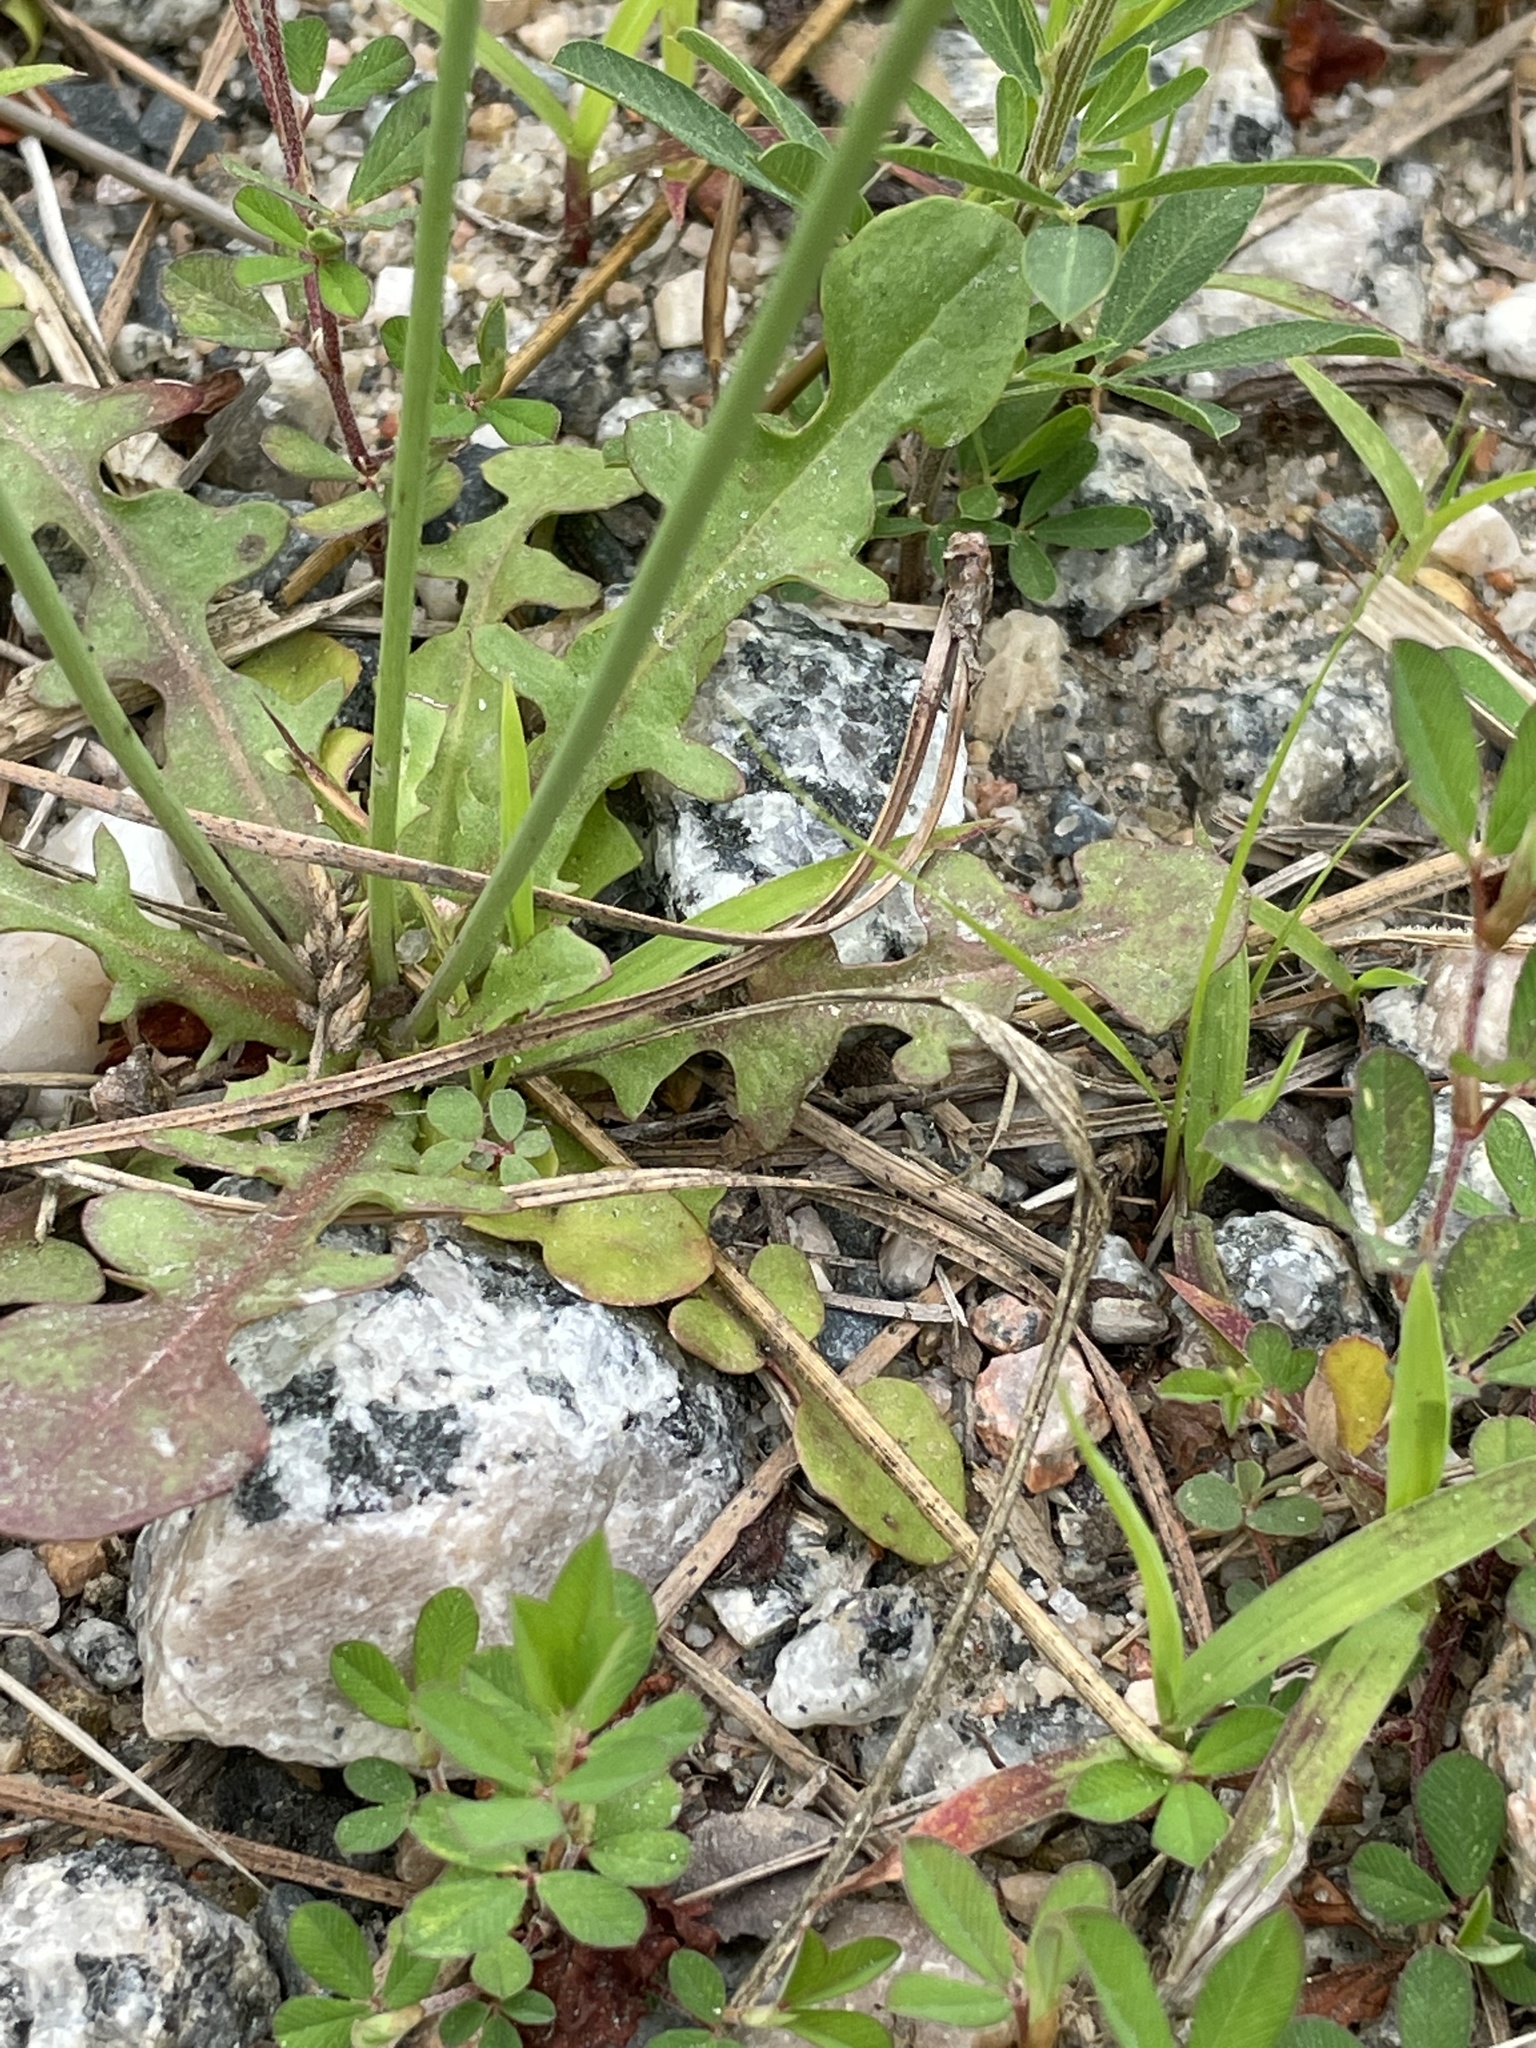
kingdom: Plantae
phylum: Tracheophyta
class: Magnoliopsida
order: Asterales
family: Asteraceae
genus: Hypochaeris
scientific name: Hypochaeris glabra
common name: Smooth catsear
